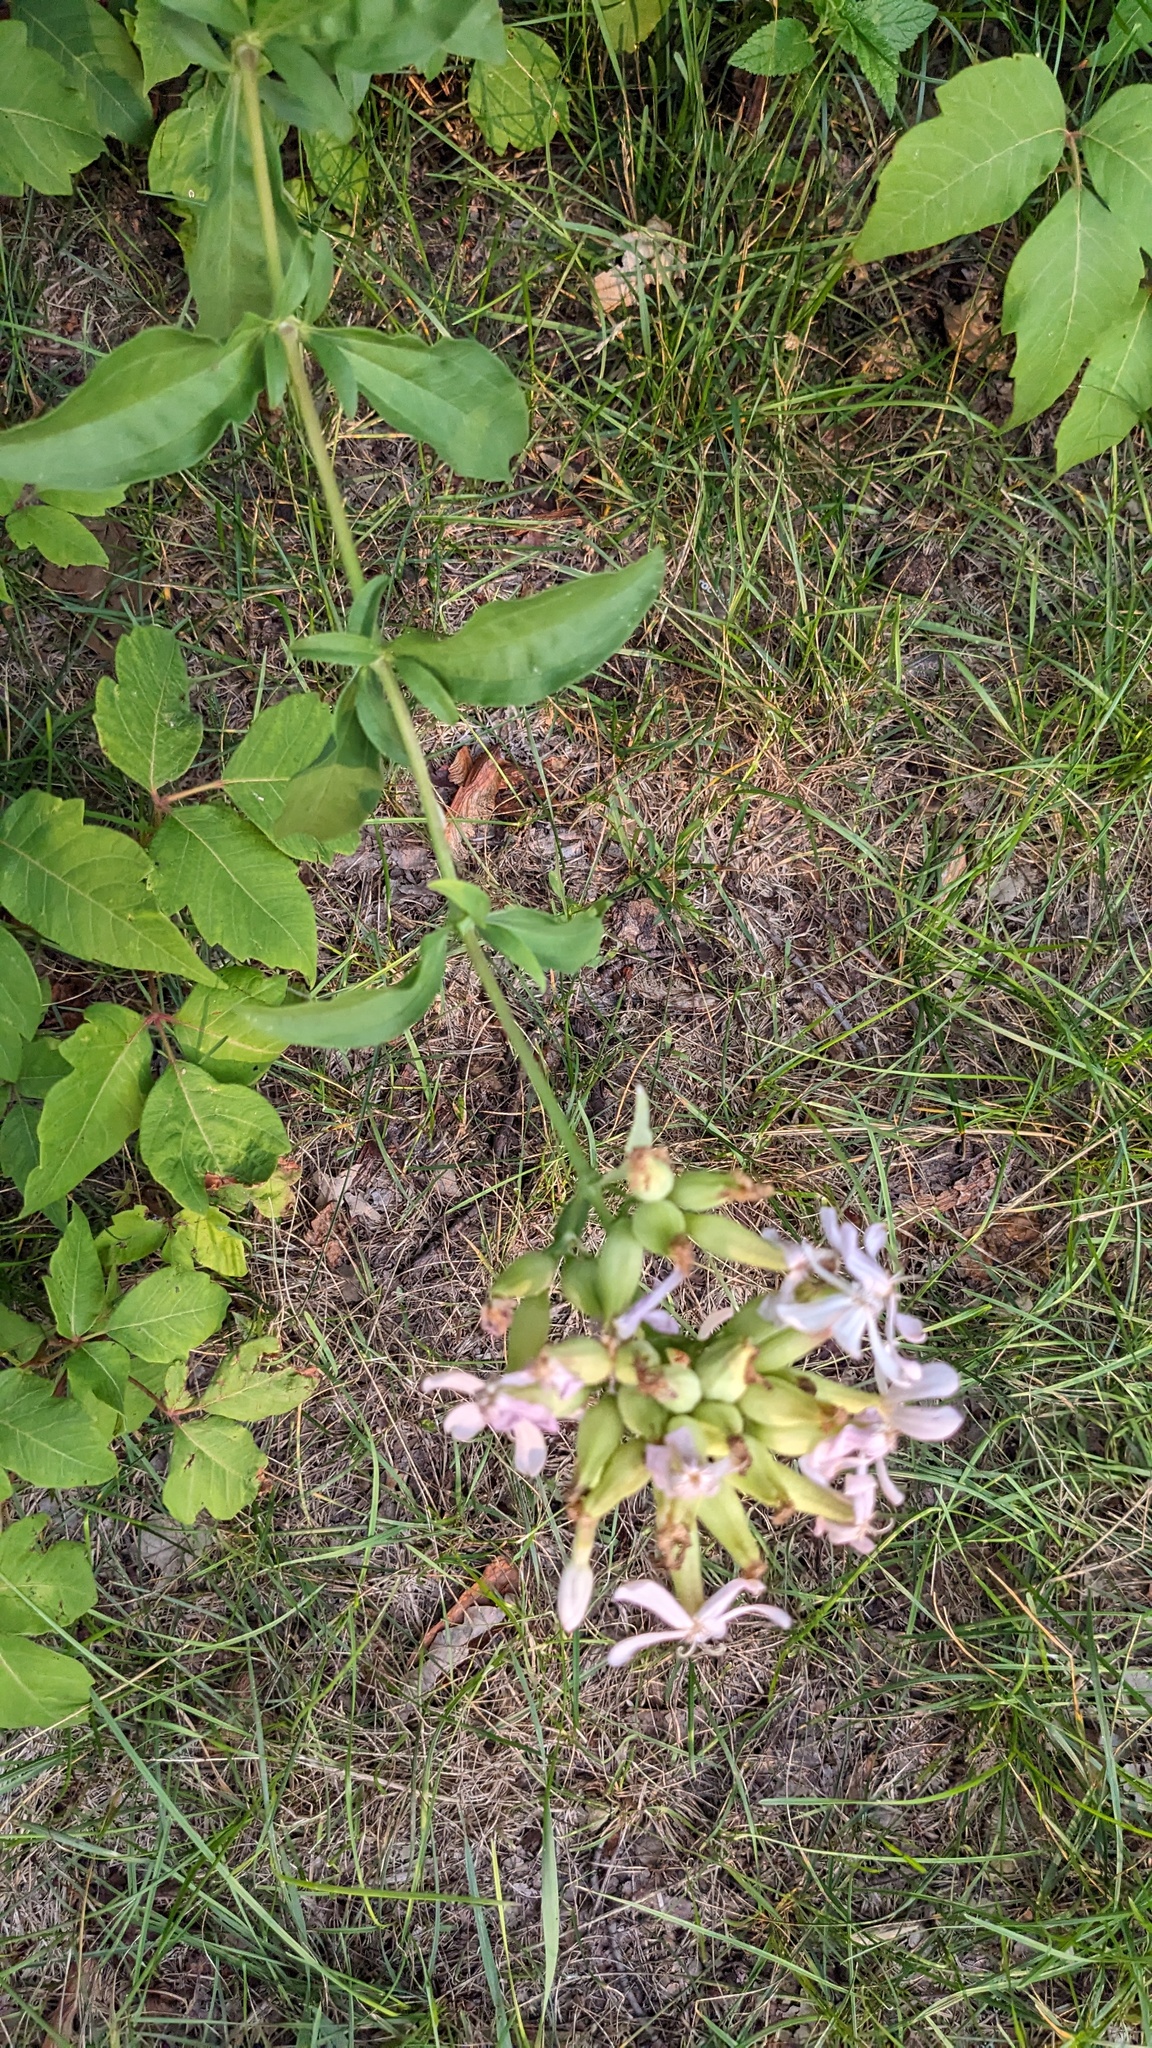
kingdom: Plantae
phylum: Tracheophyta
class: Magnoliopsida
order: Caryophyllales
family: Caryophyllaceae
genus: Saponaria
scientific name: Saponaria officinalis
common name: Soapwort
